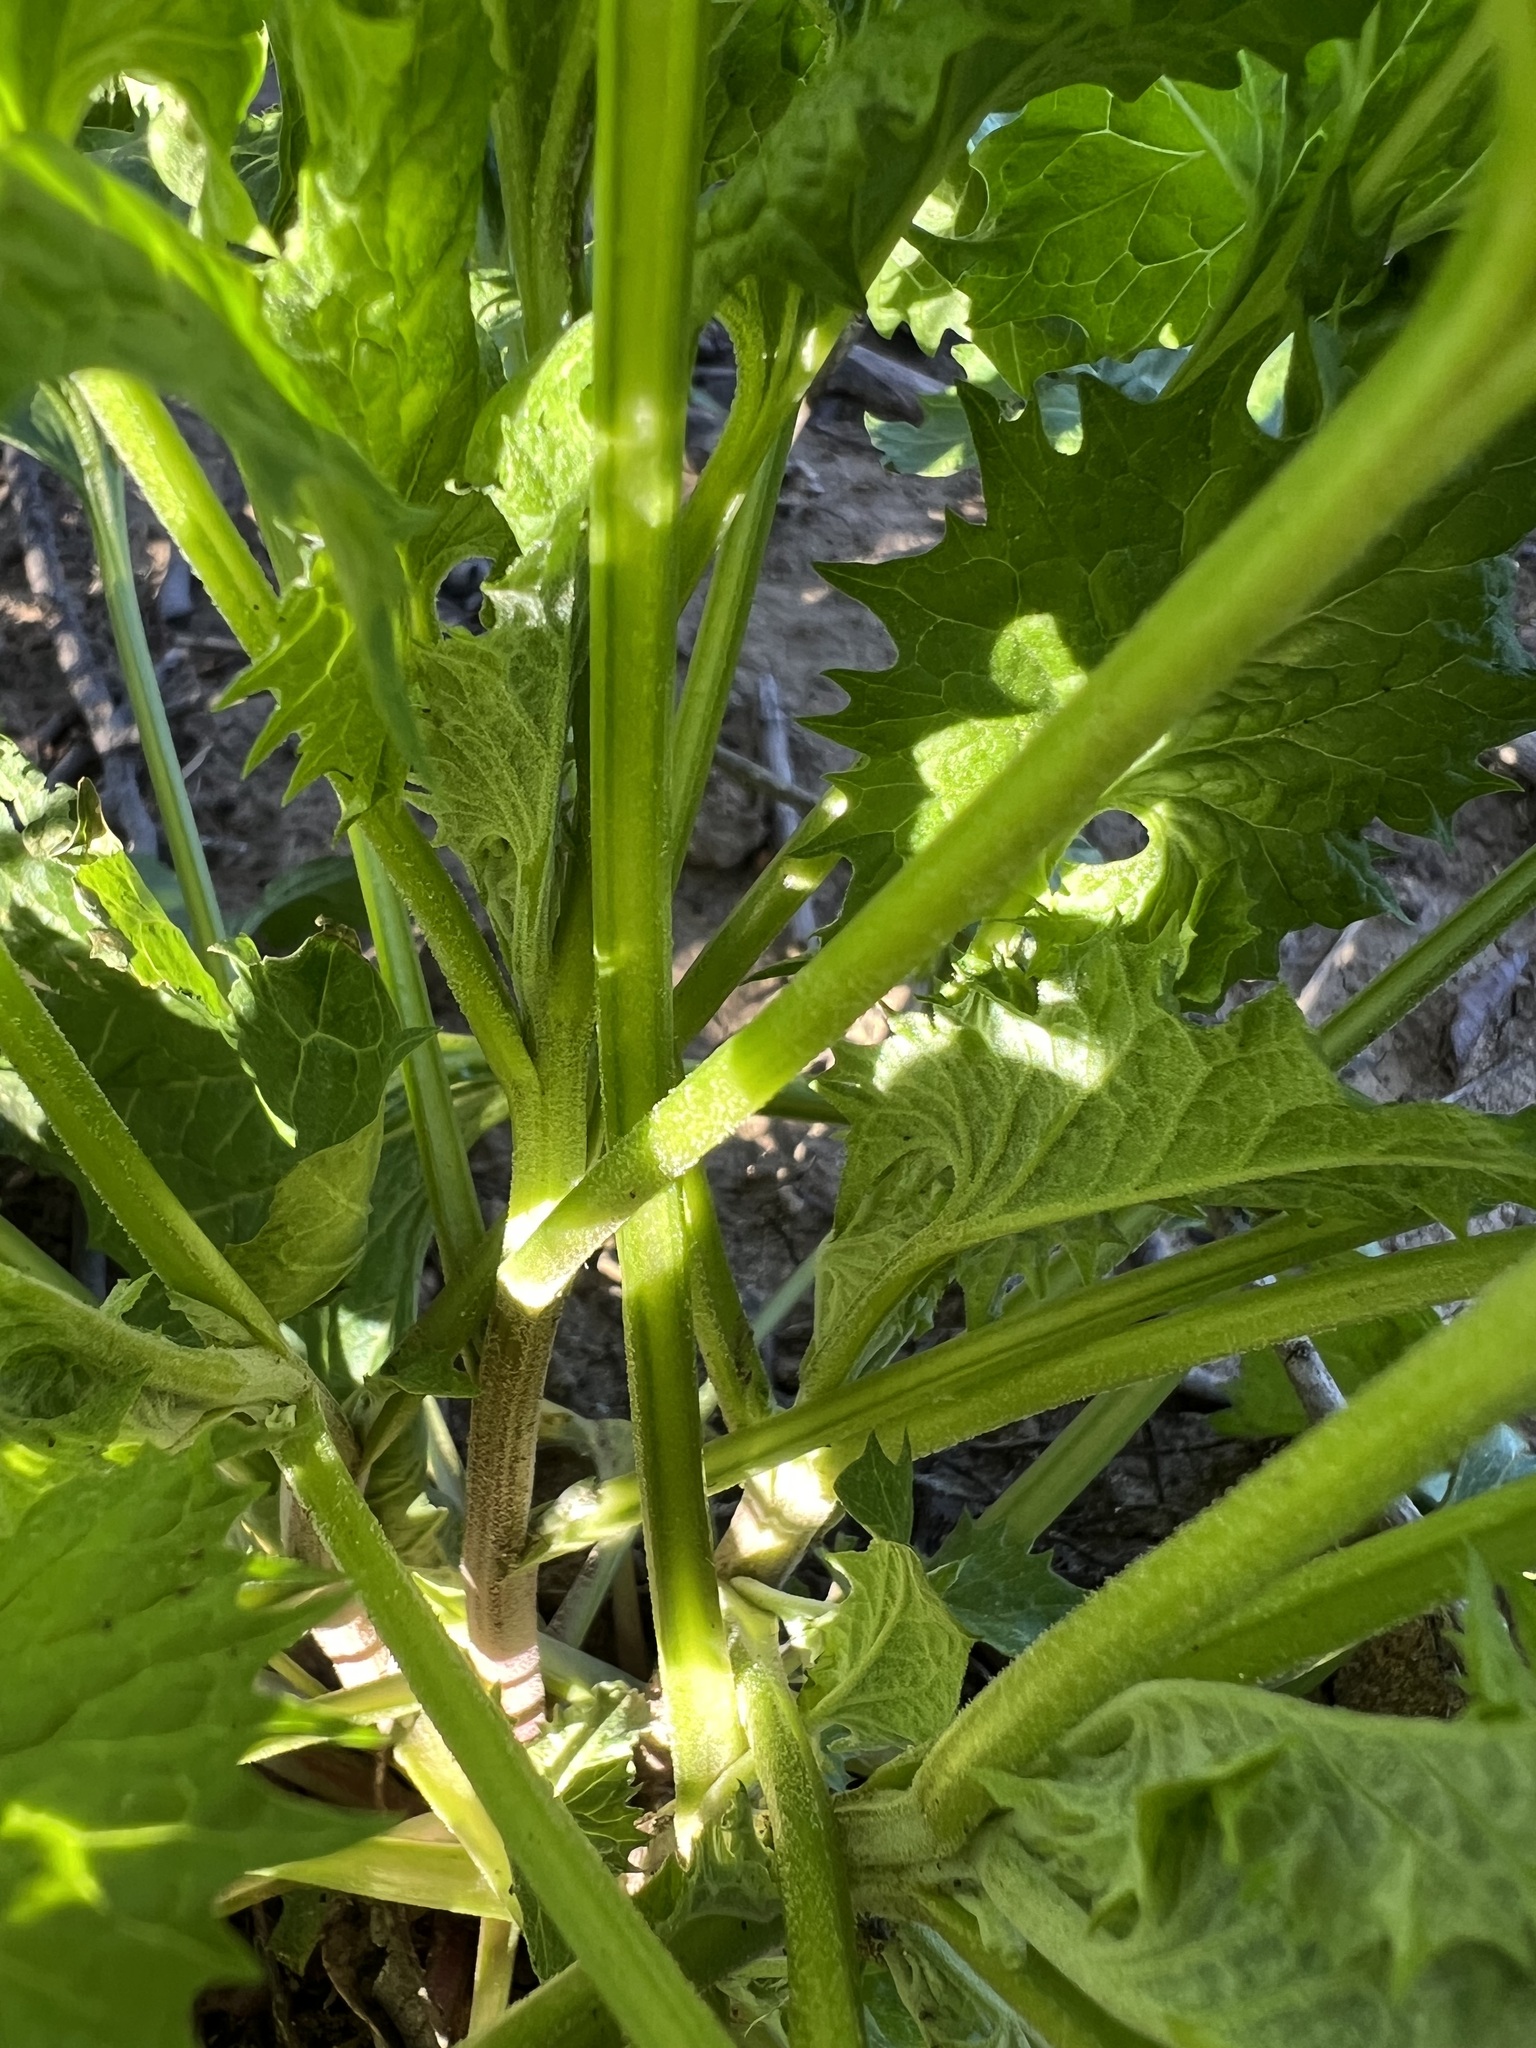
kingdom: Plantae
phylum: Tracheophyta
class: Magnoliopsida
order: Lamiales
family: Scrophulariaceae
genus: Scrophularia
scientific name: Scrophularia californica
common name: California figwort
